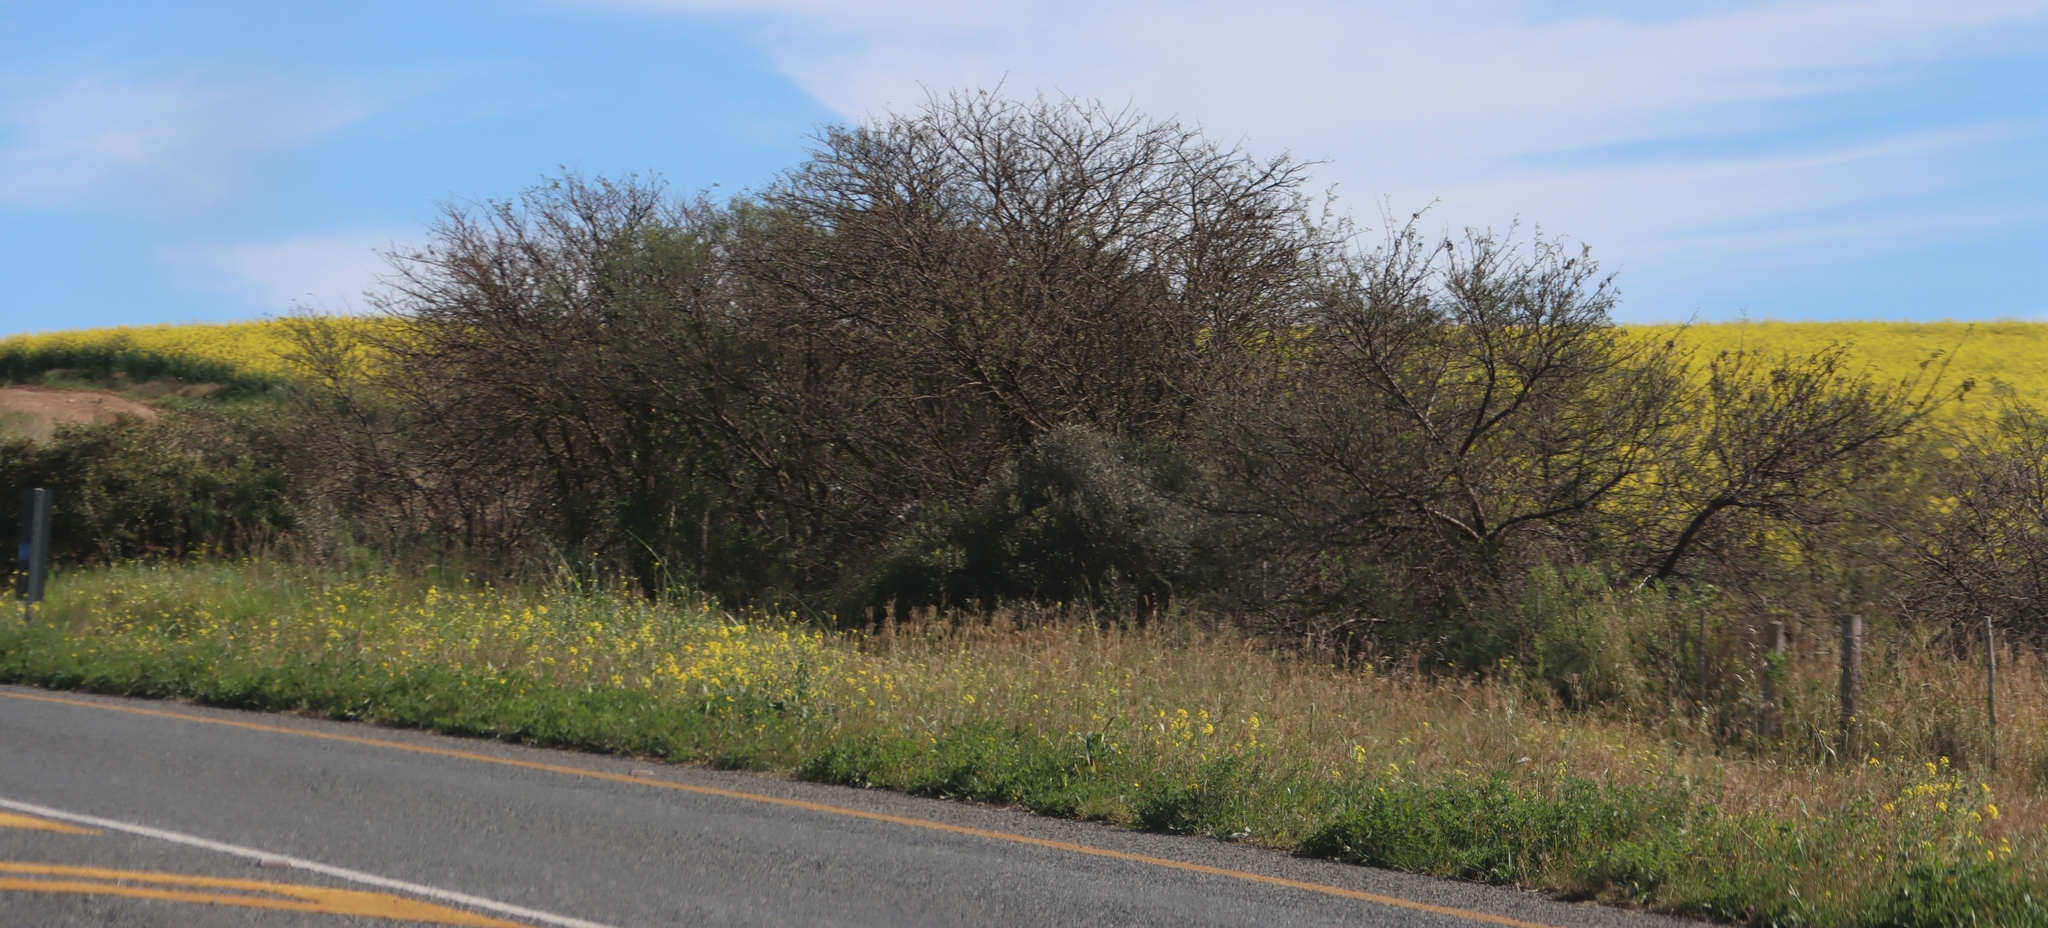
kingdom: Plantae
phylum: Tracheophyta
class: Magnoliopsida
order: Fabales
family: Fabaceae
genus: Vachellia
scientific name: Vachellia karroo
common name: Sweet thorn
